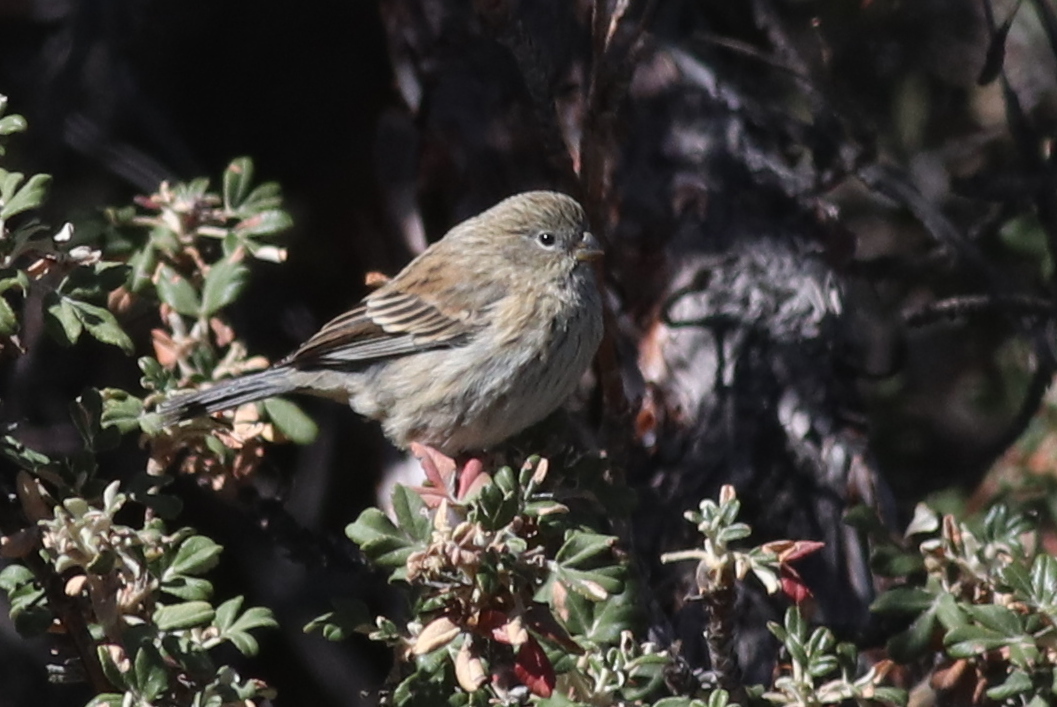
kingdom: Animalia
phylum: Chordata
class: Aves
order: Passeriformes
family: Thraupidae
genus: Catamenia
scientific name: Catamenia analis
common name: Band-tailed seedeater
